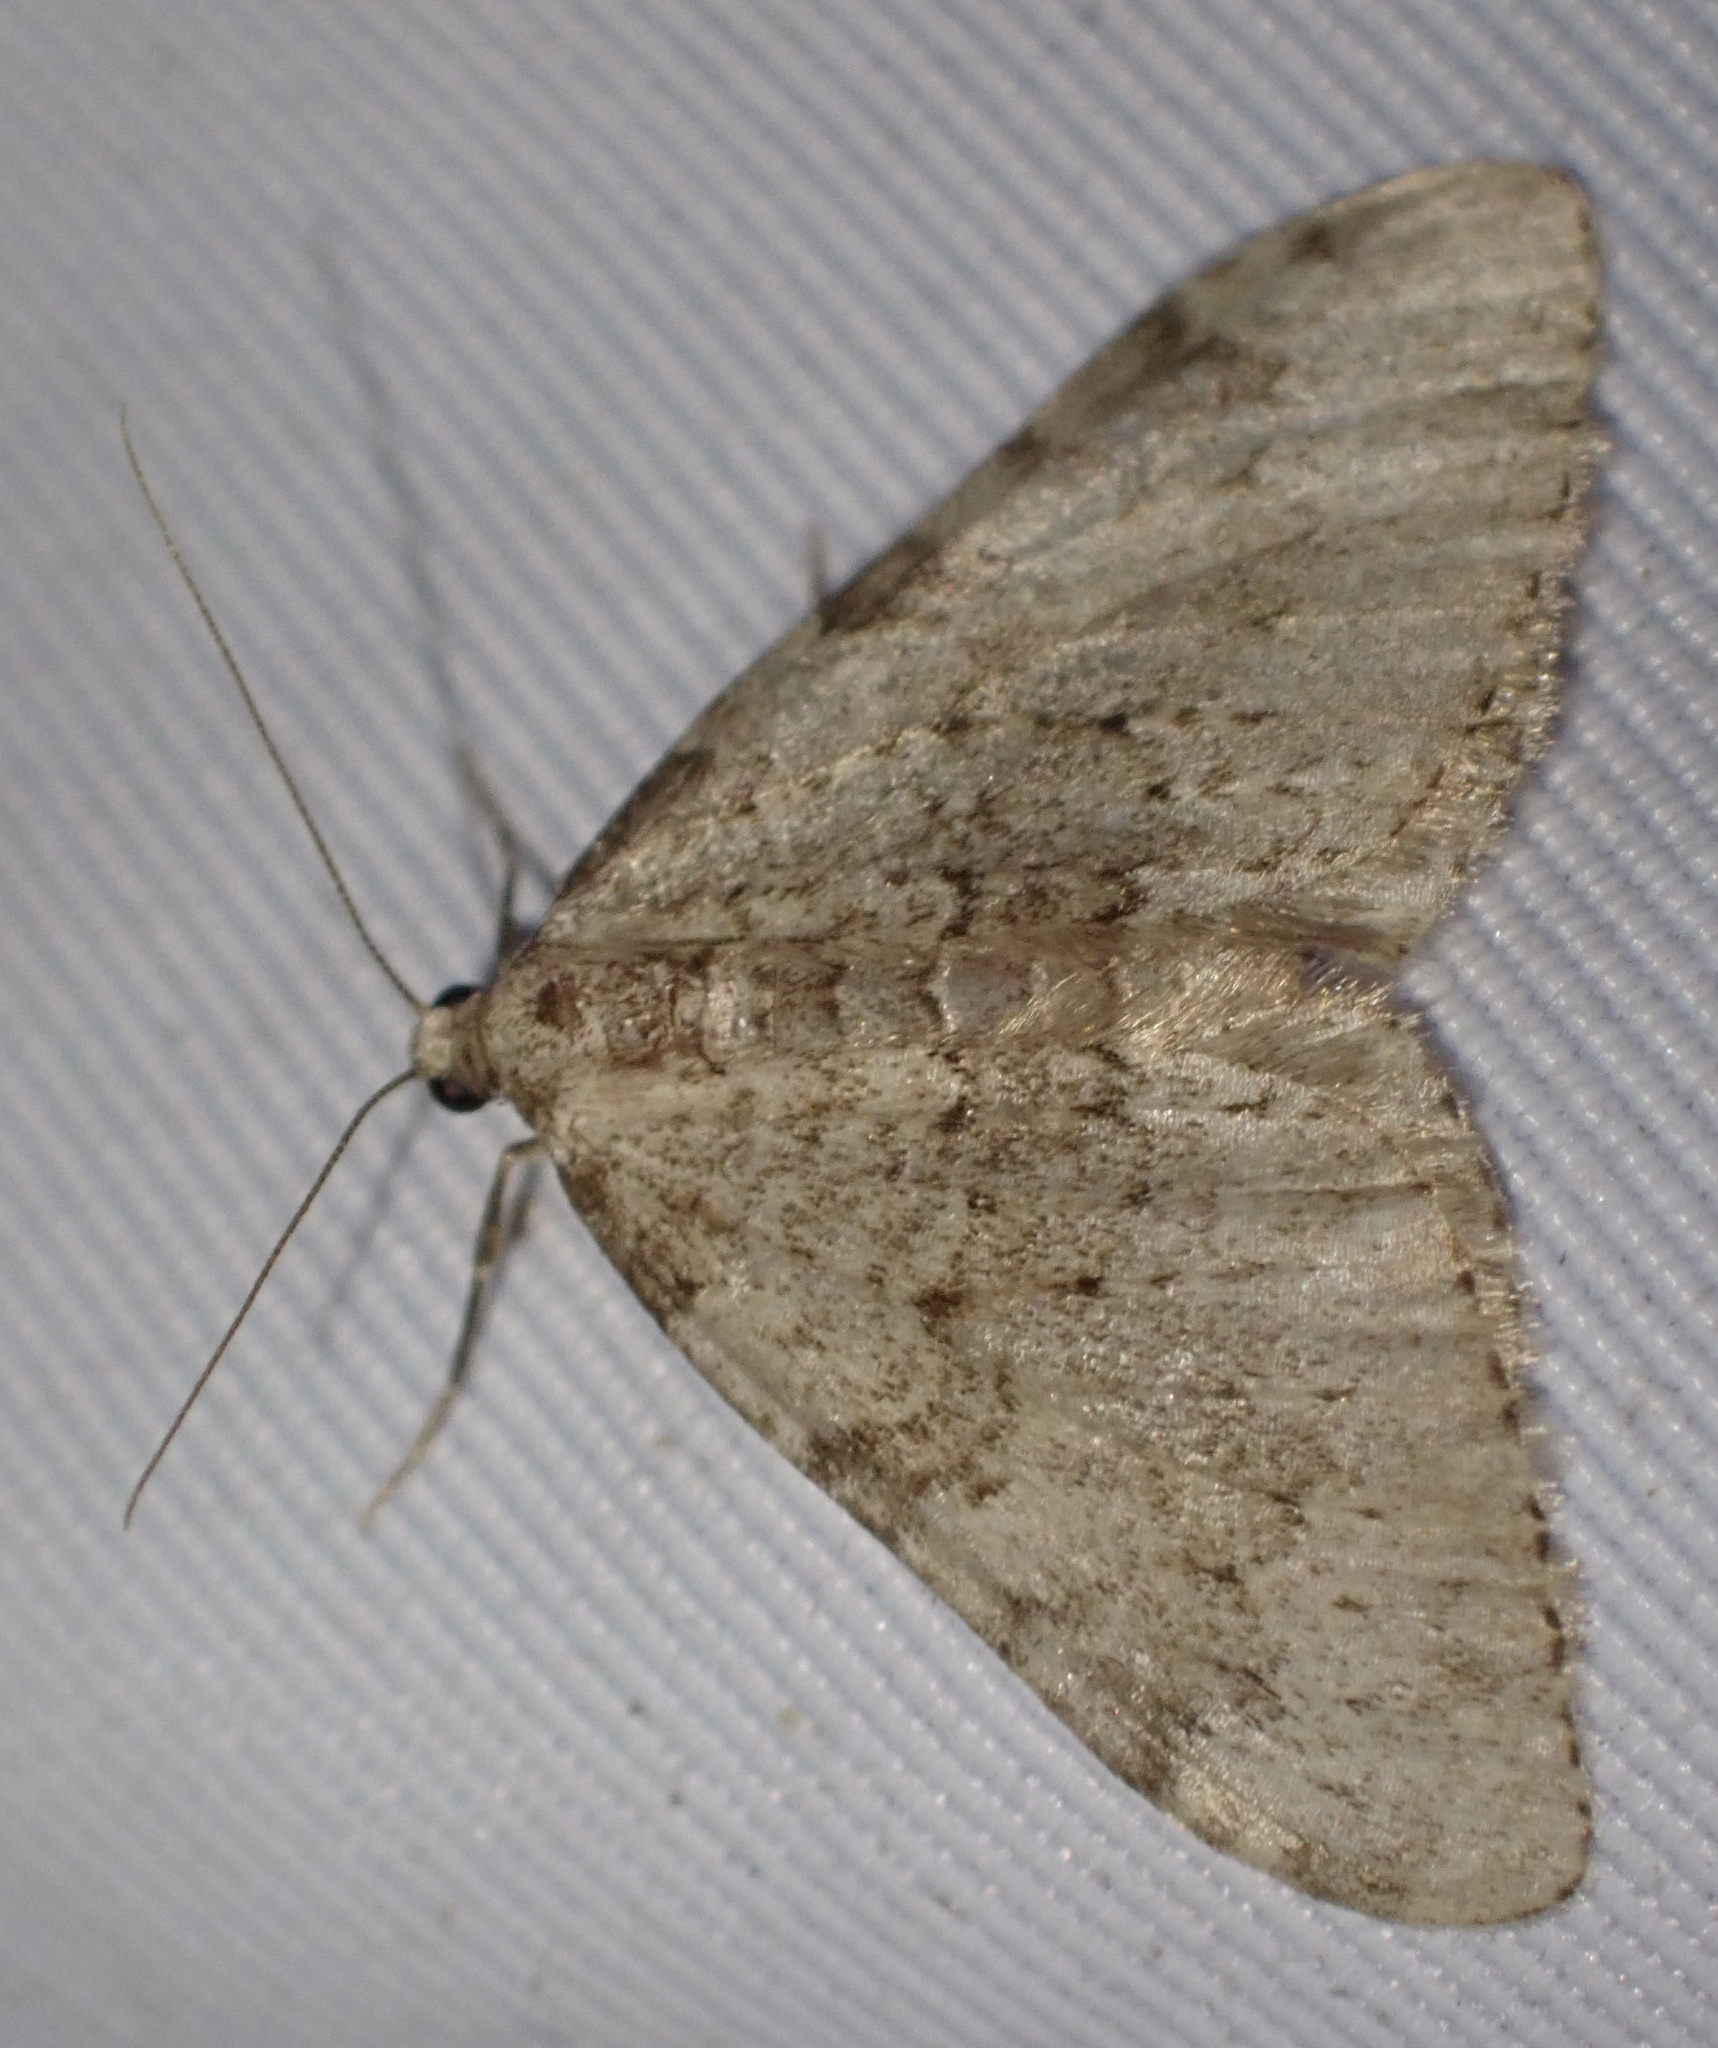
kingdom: Animalia
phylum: Arthropoda
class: Insecta
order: Lepidoptera
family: Geometridae
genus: Nebula
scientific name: Nebula ibericata
